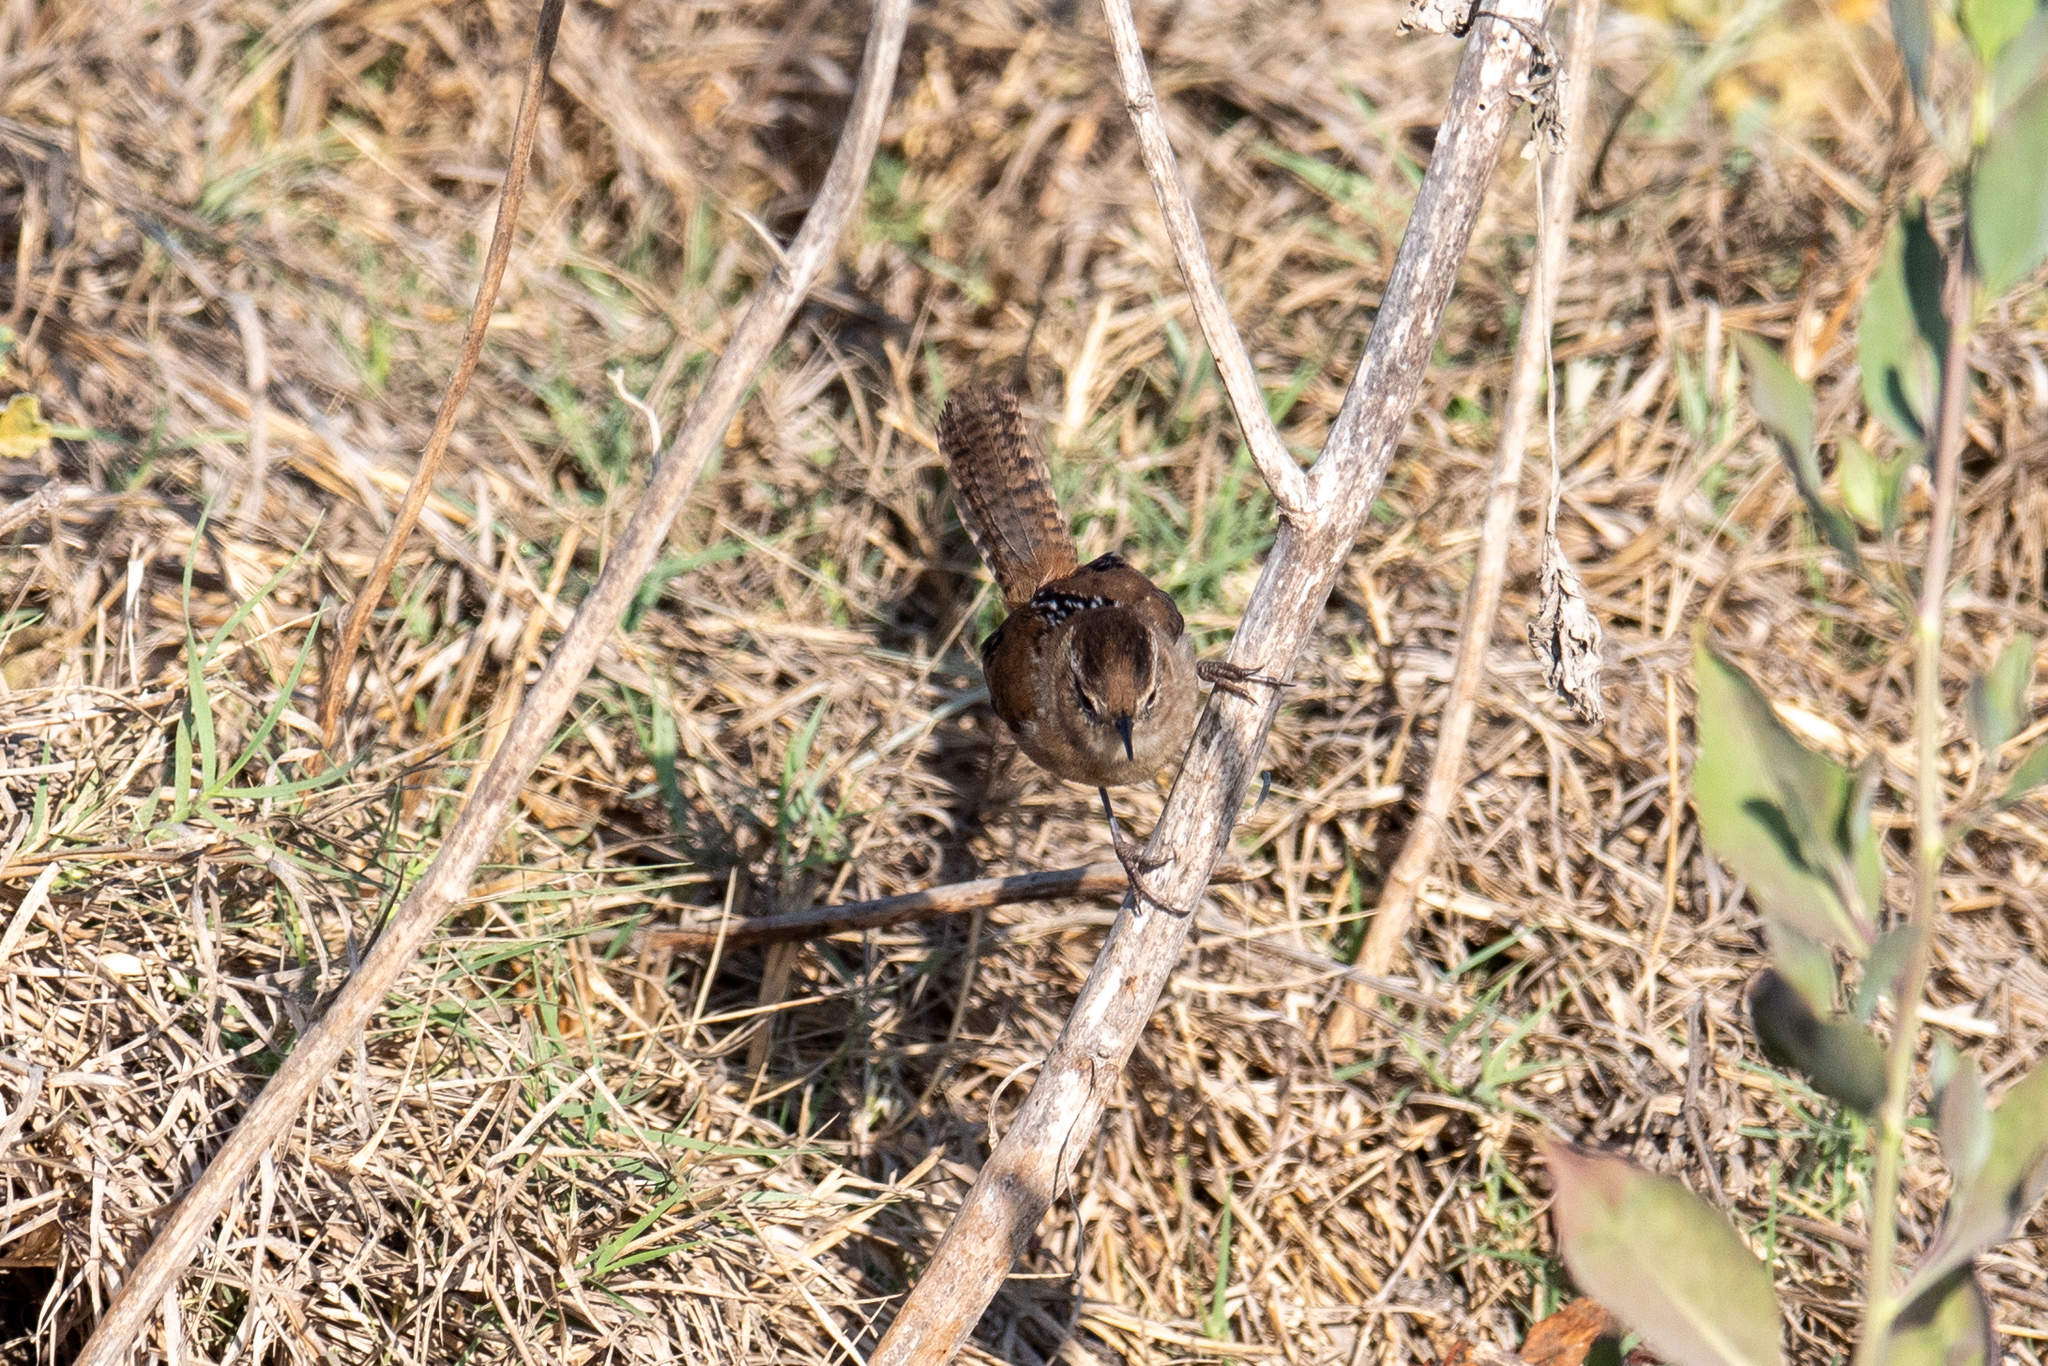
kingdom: Animalia
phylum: Chordata
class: Aves
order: Passeriformes
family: Troglodytidae
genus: Cistothorus
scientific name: Cistothorus palustris
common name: Marsh wren
